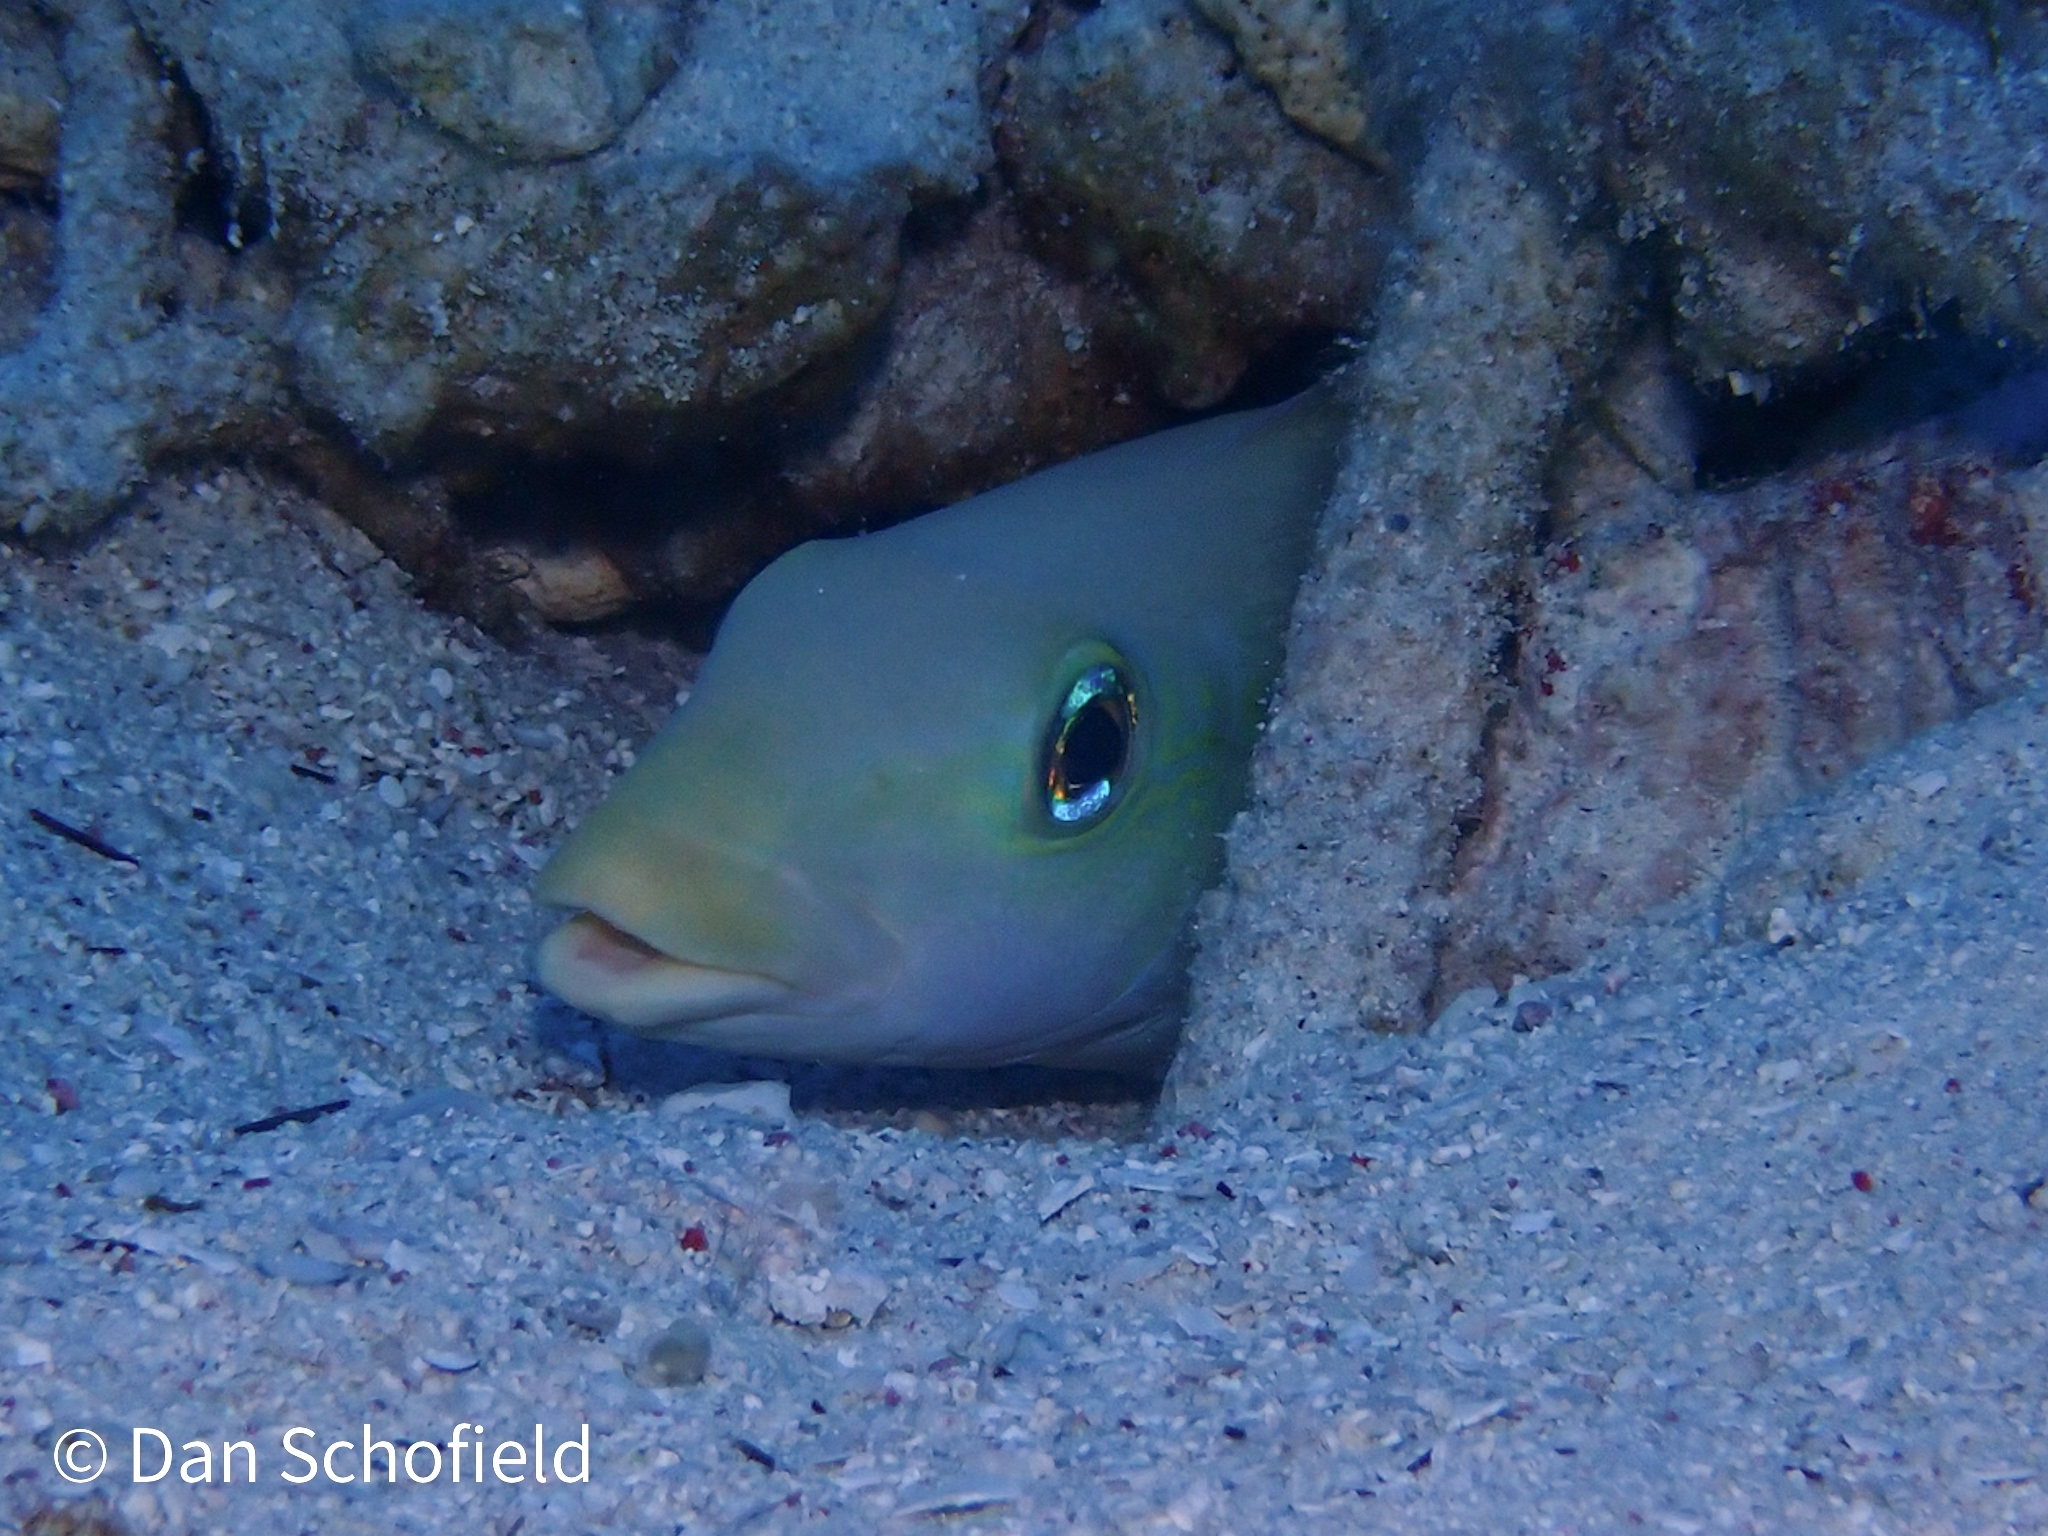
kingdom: Animalia
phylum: Chordata
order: Perciformes
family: Malacanthidae
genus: Malacanthus
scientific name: Malacanthus plumieri
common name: Sand tilefish
